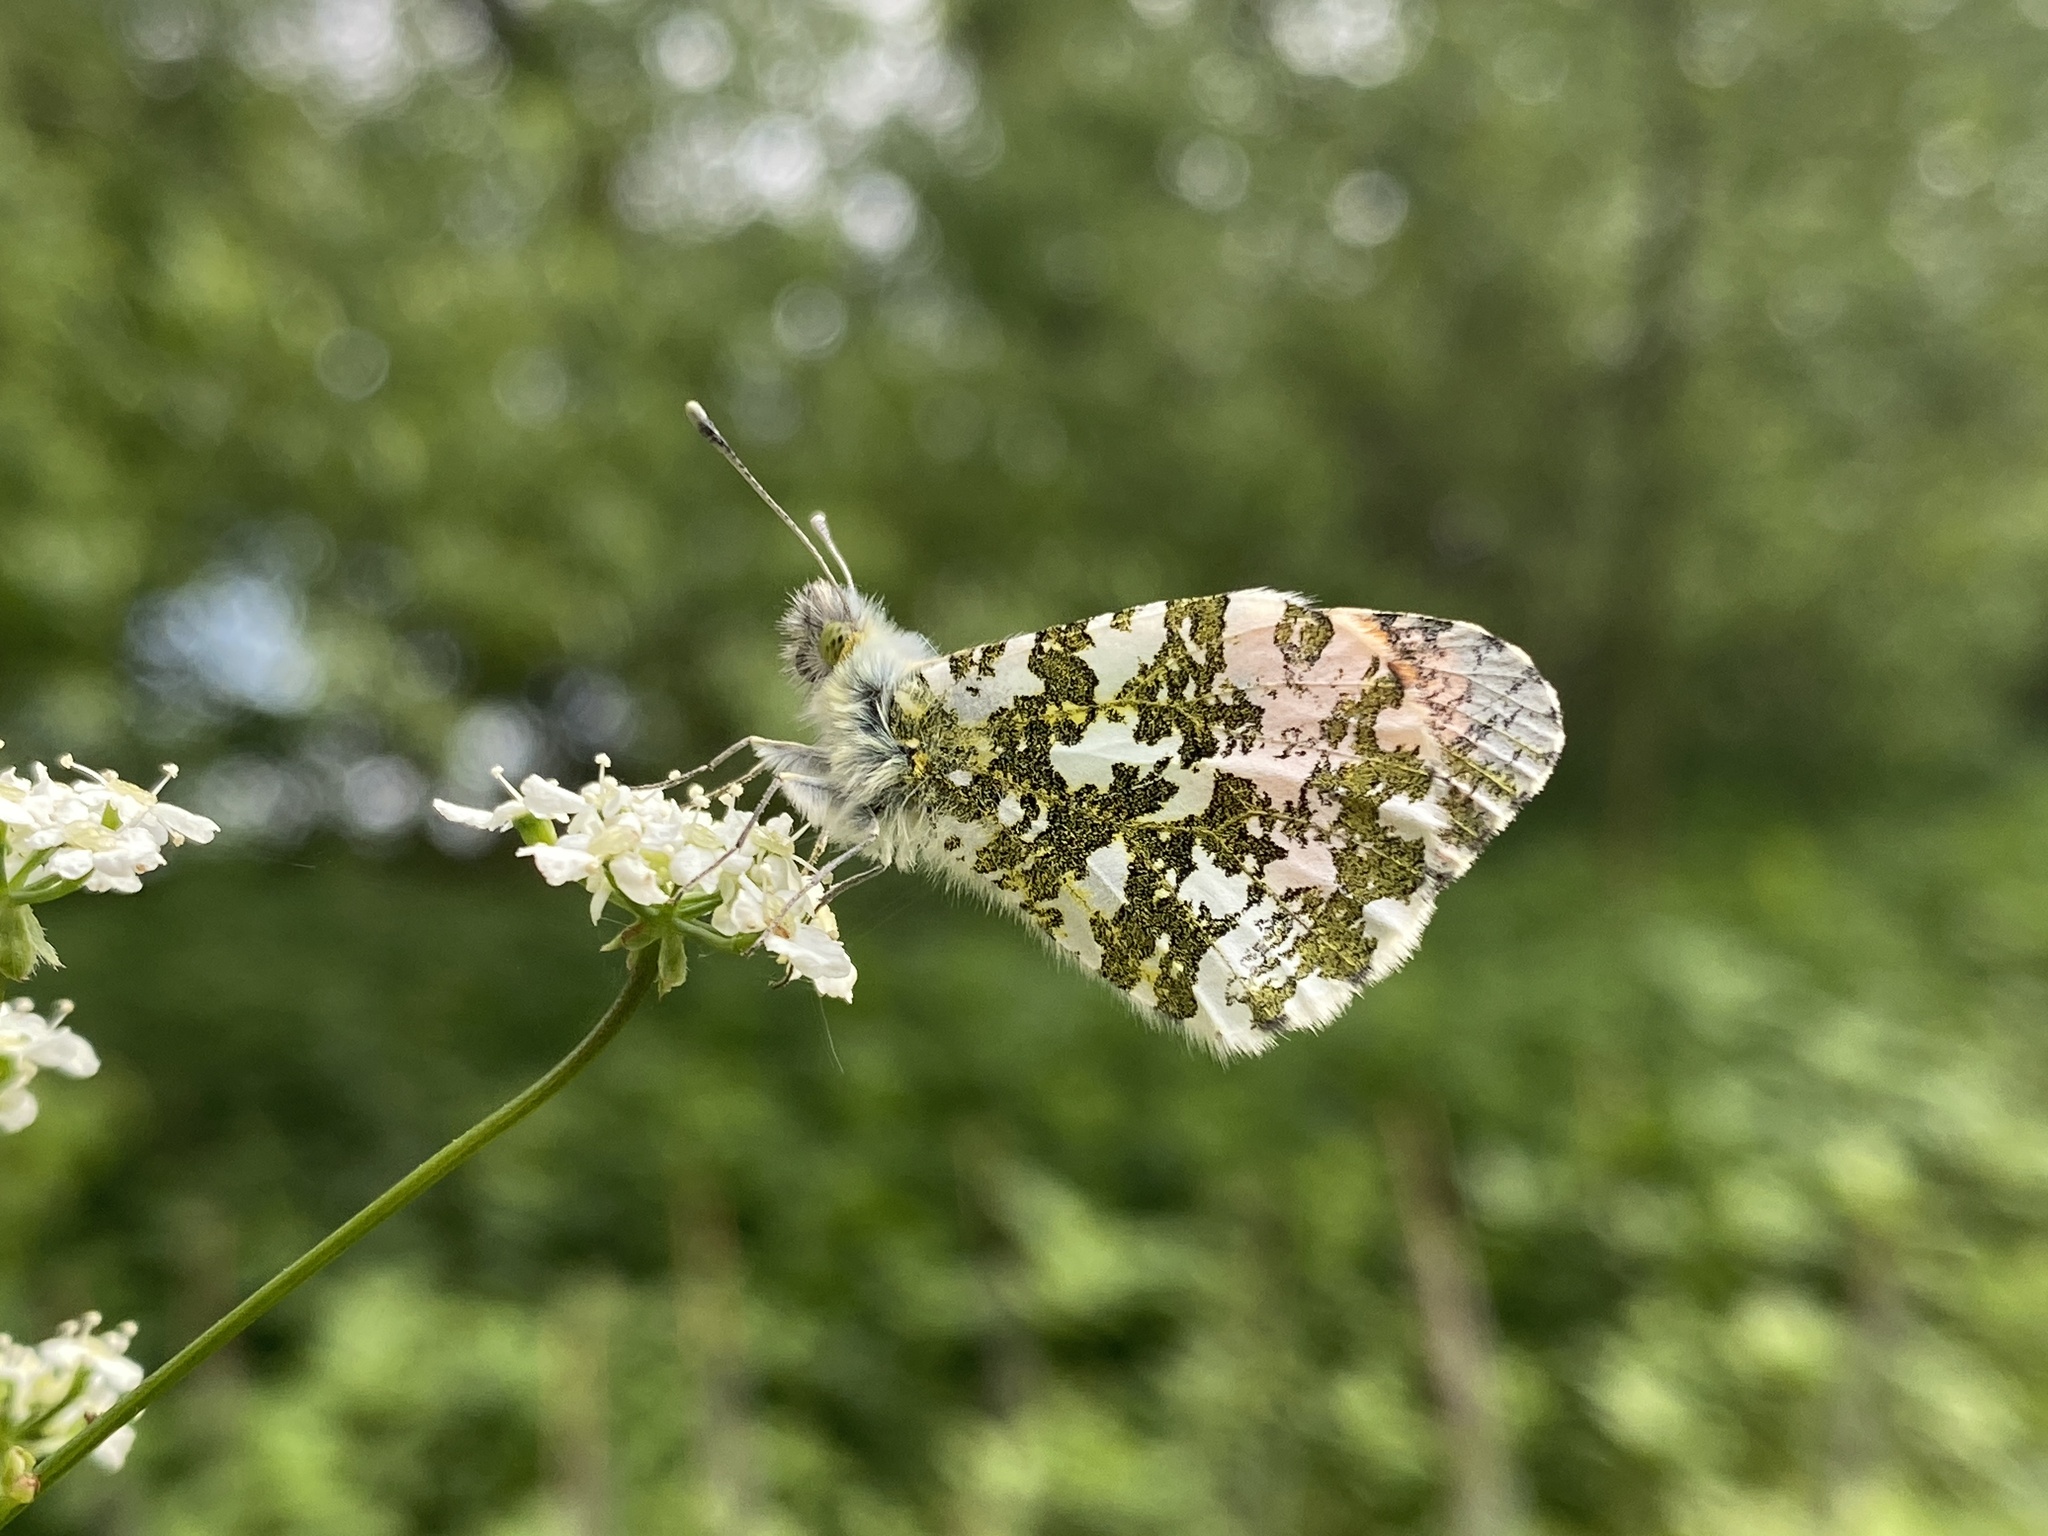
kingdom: Animalia
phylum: Arthropoda
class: Insecta
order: Lepidoptera
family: Pieridae
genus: Anthocharis
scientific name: Anthocharis cardamines
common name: Orange-tip
